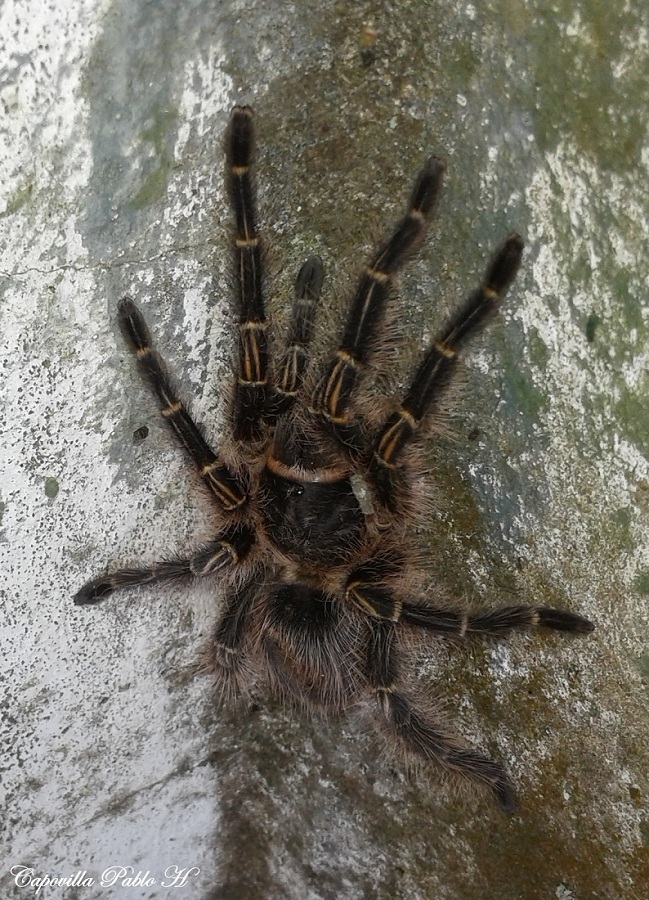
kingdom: Animalia
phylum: Arthropoda
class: Arachnida
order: Araneae
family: Theraphosidae
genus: Grammostola
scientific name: Grammostola pulchripes
